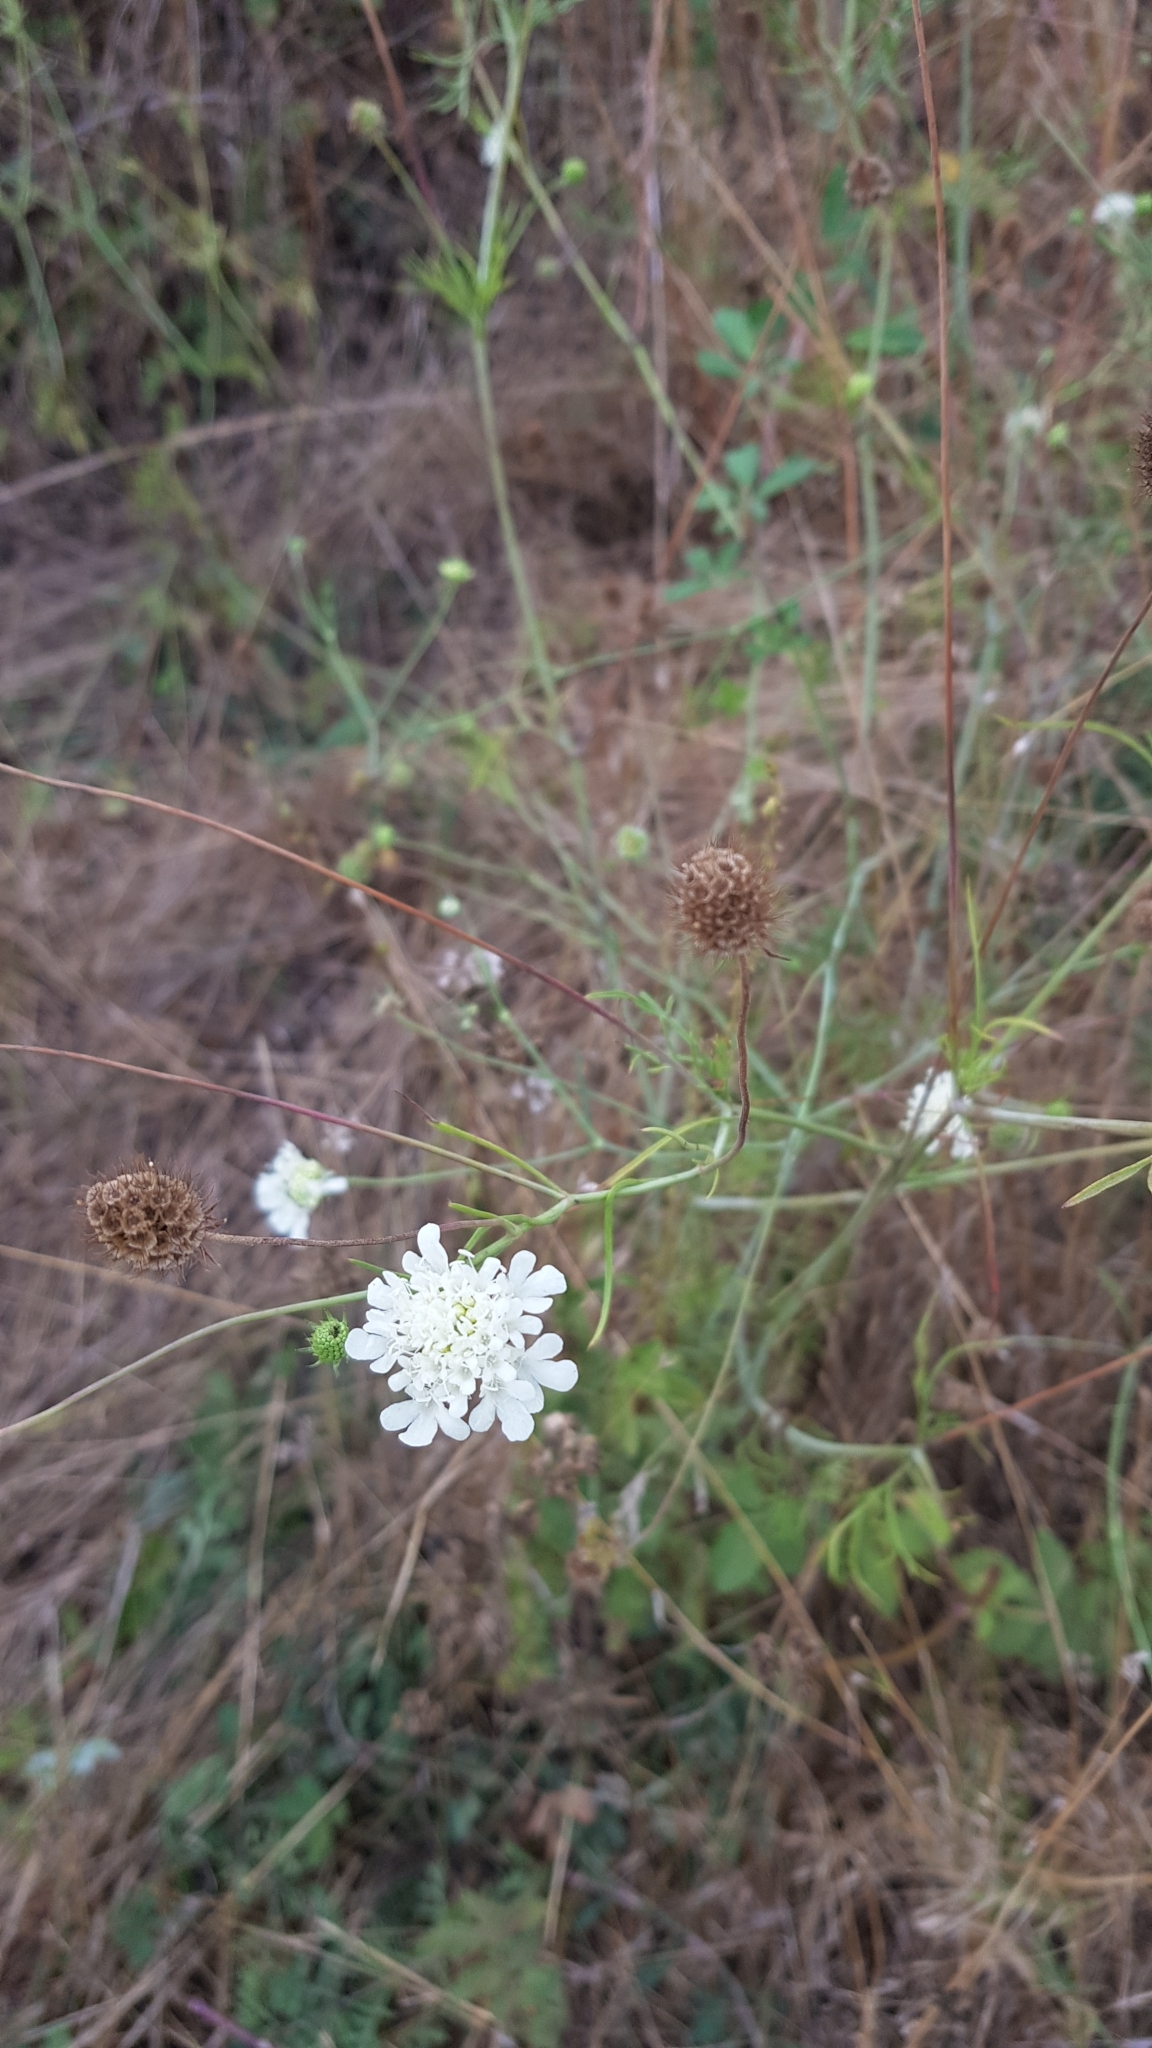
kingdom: Plantae
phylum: Tracheophyta
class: Magnoliopsida
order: Dipsacales
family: Caprifoliaceae
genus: Lomelosia
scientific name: Lomelosia argentea
